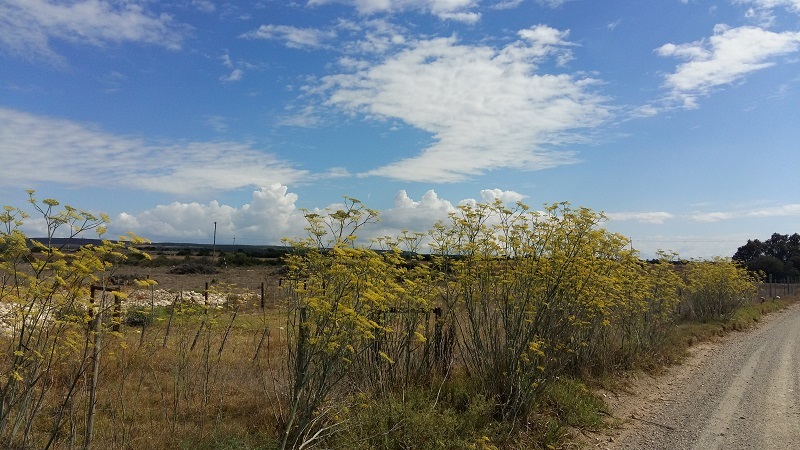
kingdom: Plantae
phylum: Tracheophyta
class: Magnoliopsida
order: Apiales
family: Apiaceae
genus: Foeniculum
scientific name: Foeniculum vulgare
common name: Fennel
